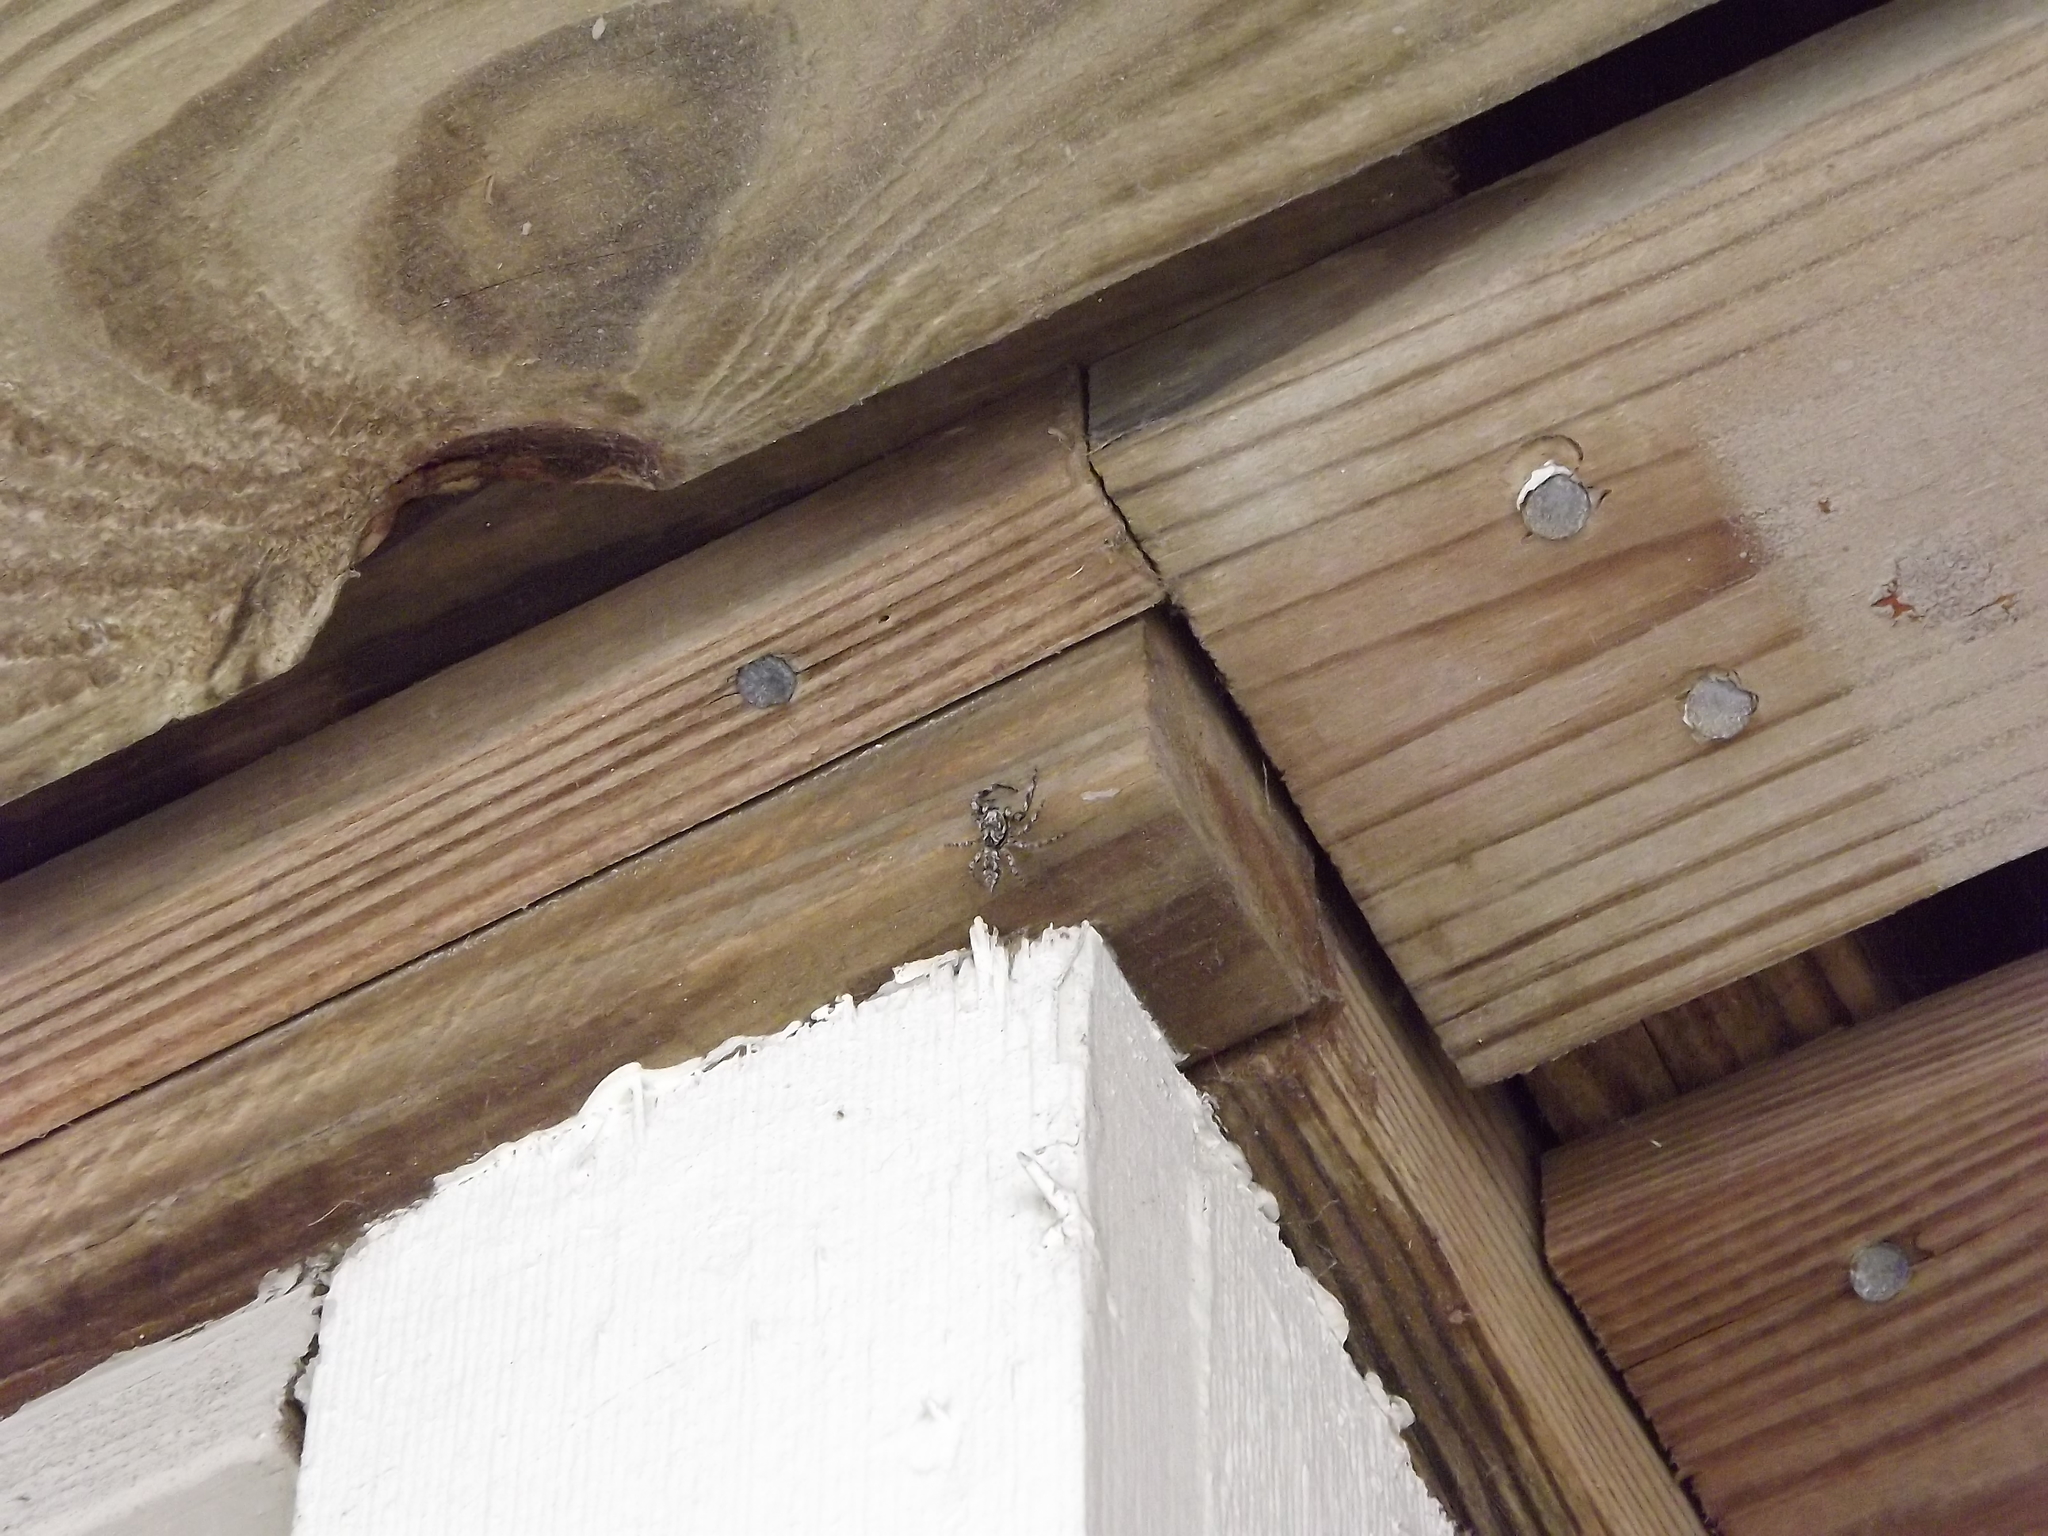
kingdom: Animalia
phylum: Arthropoda
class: Arachnida
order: Araneae
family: Salticidae
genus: Platycryptus
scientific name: Platycryptus undatus
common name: Tan jumping spider
